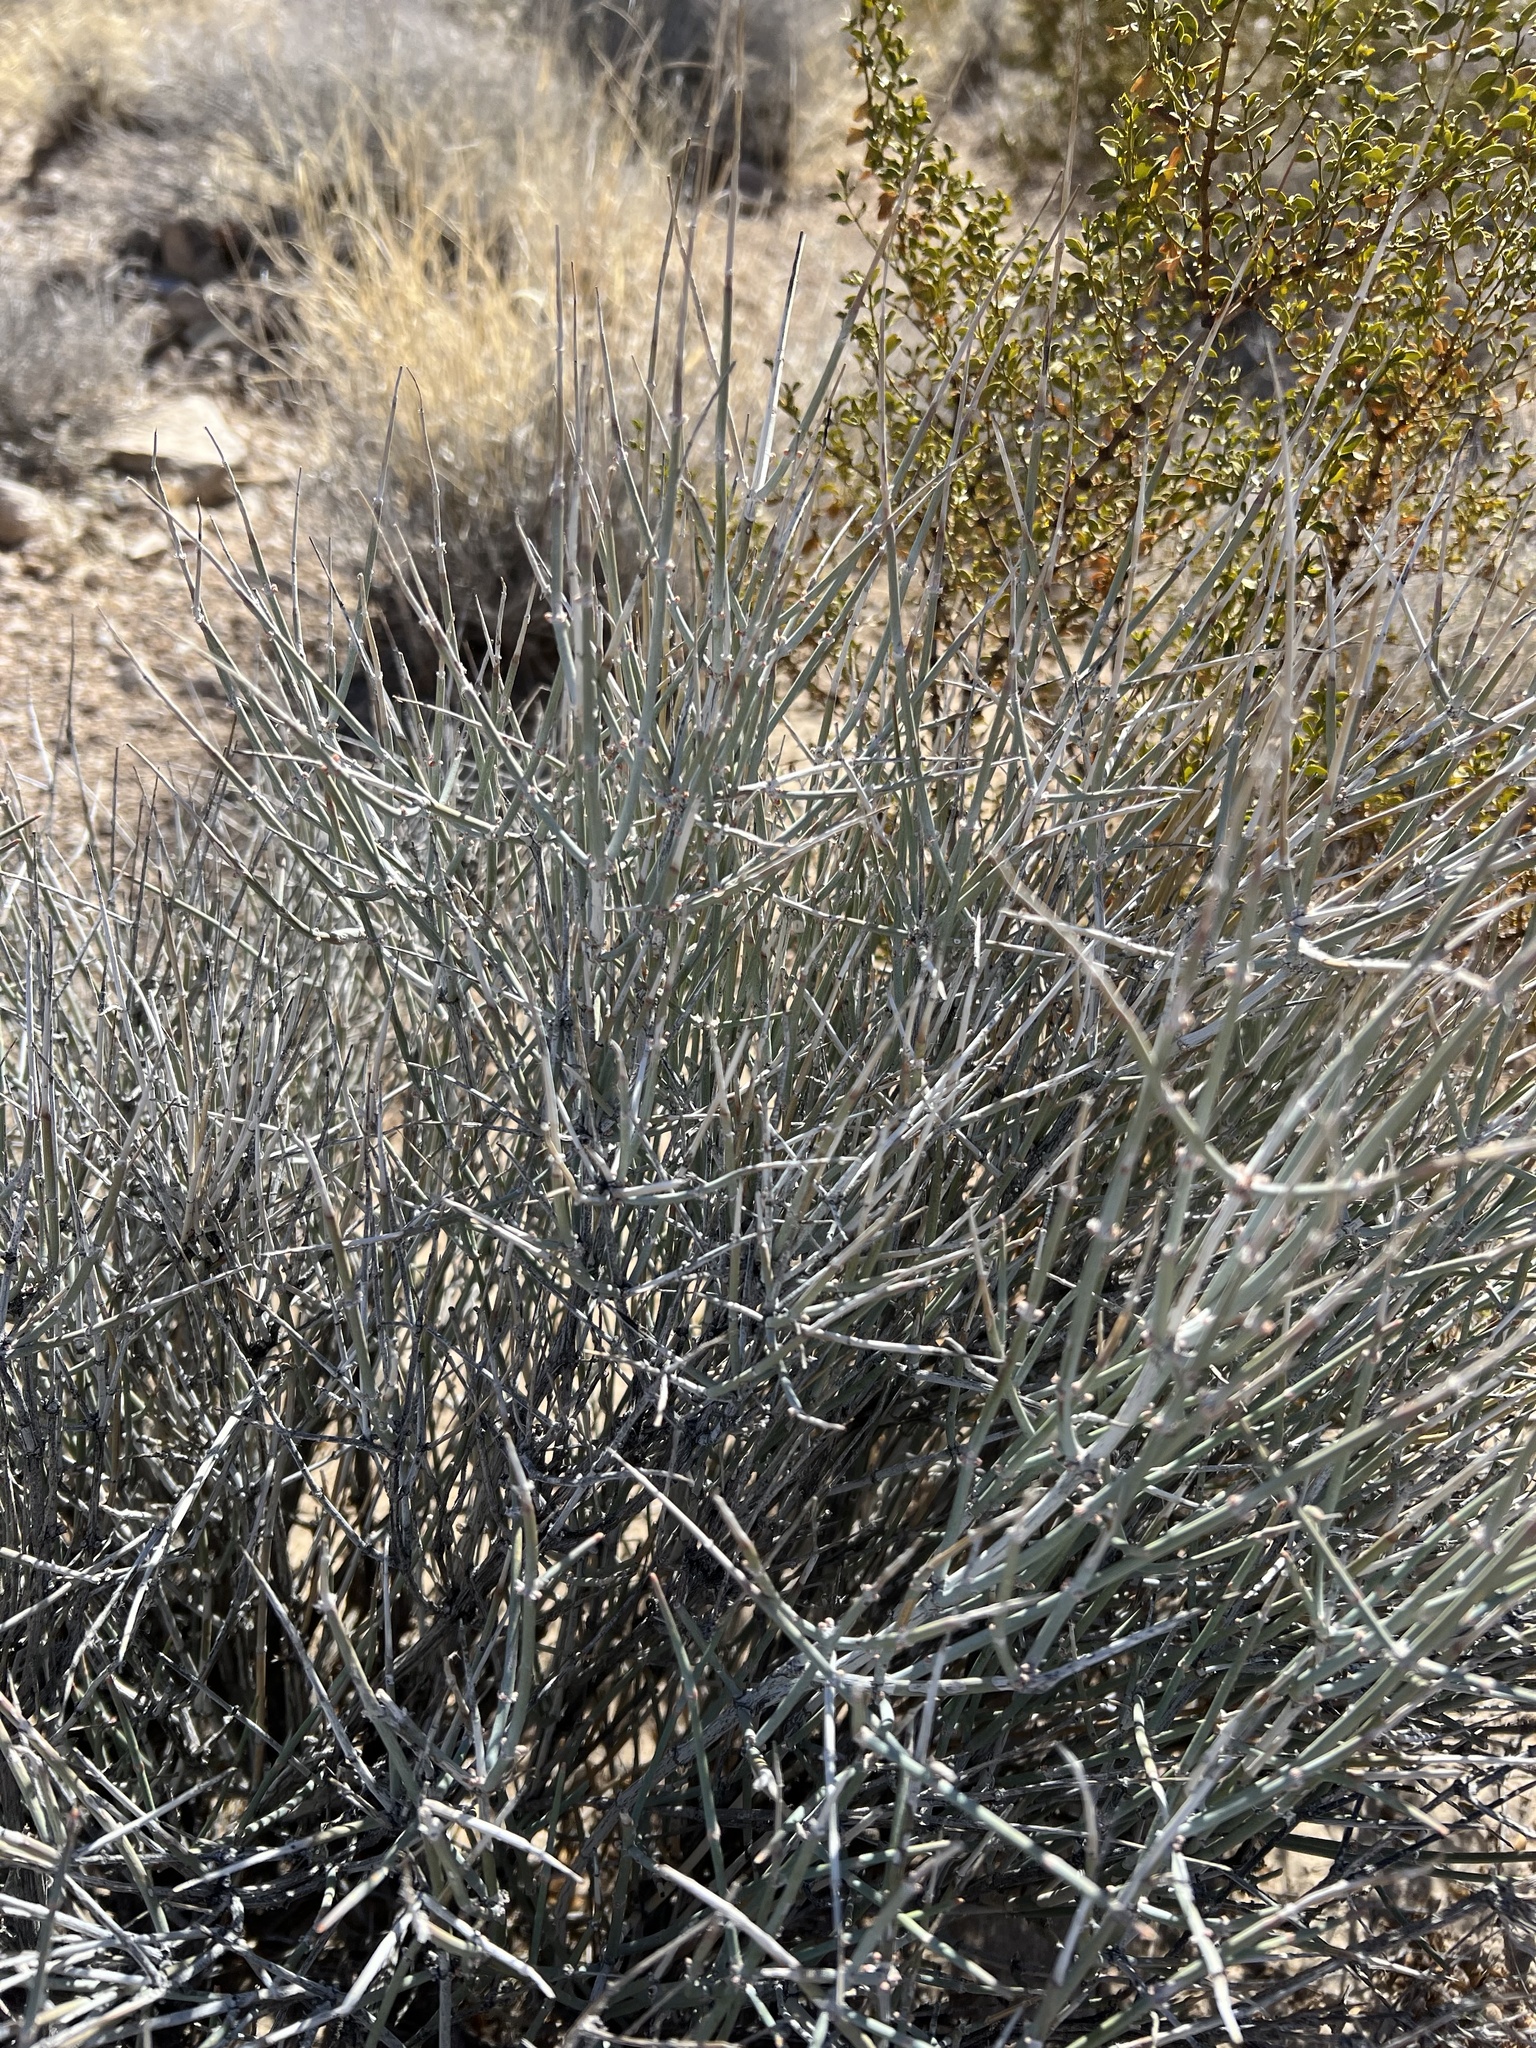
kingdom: Plantae
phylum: Tracheophyta
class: Gnetopsida
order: Ephedrales
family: Ephedraceae
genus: Ephedra
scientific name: Ephedra nevadensis
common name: Gray ephedra
